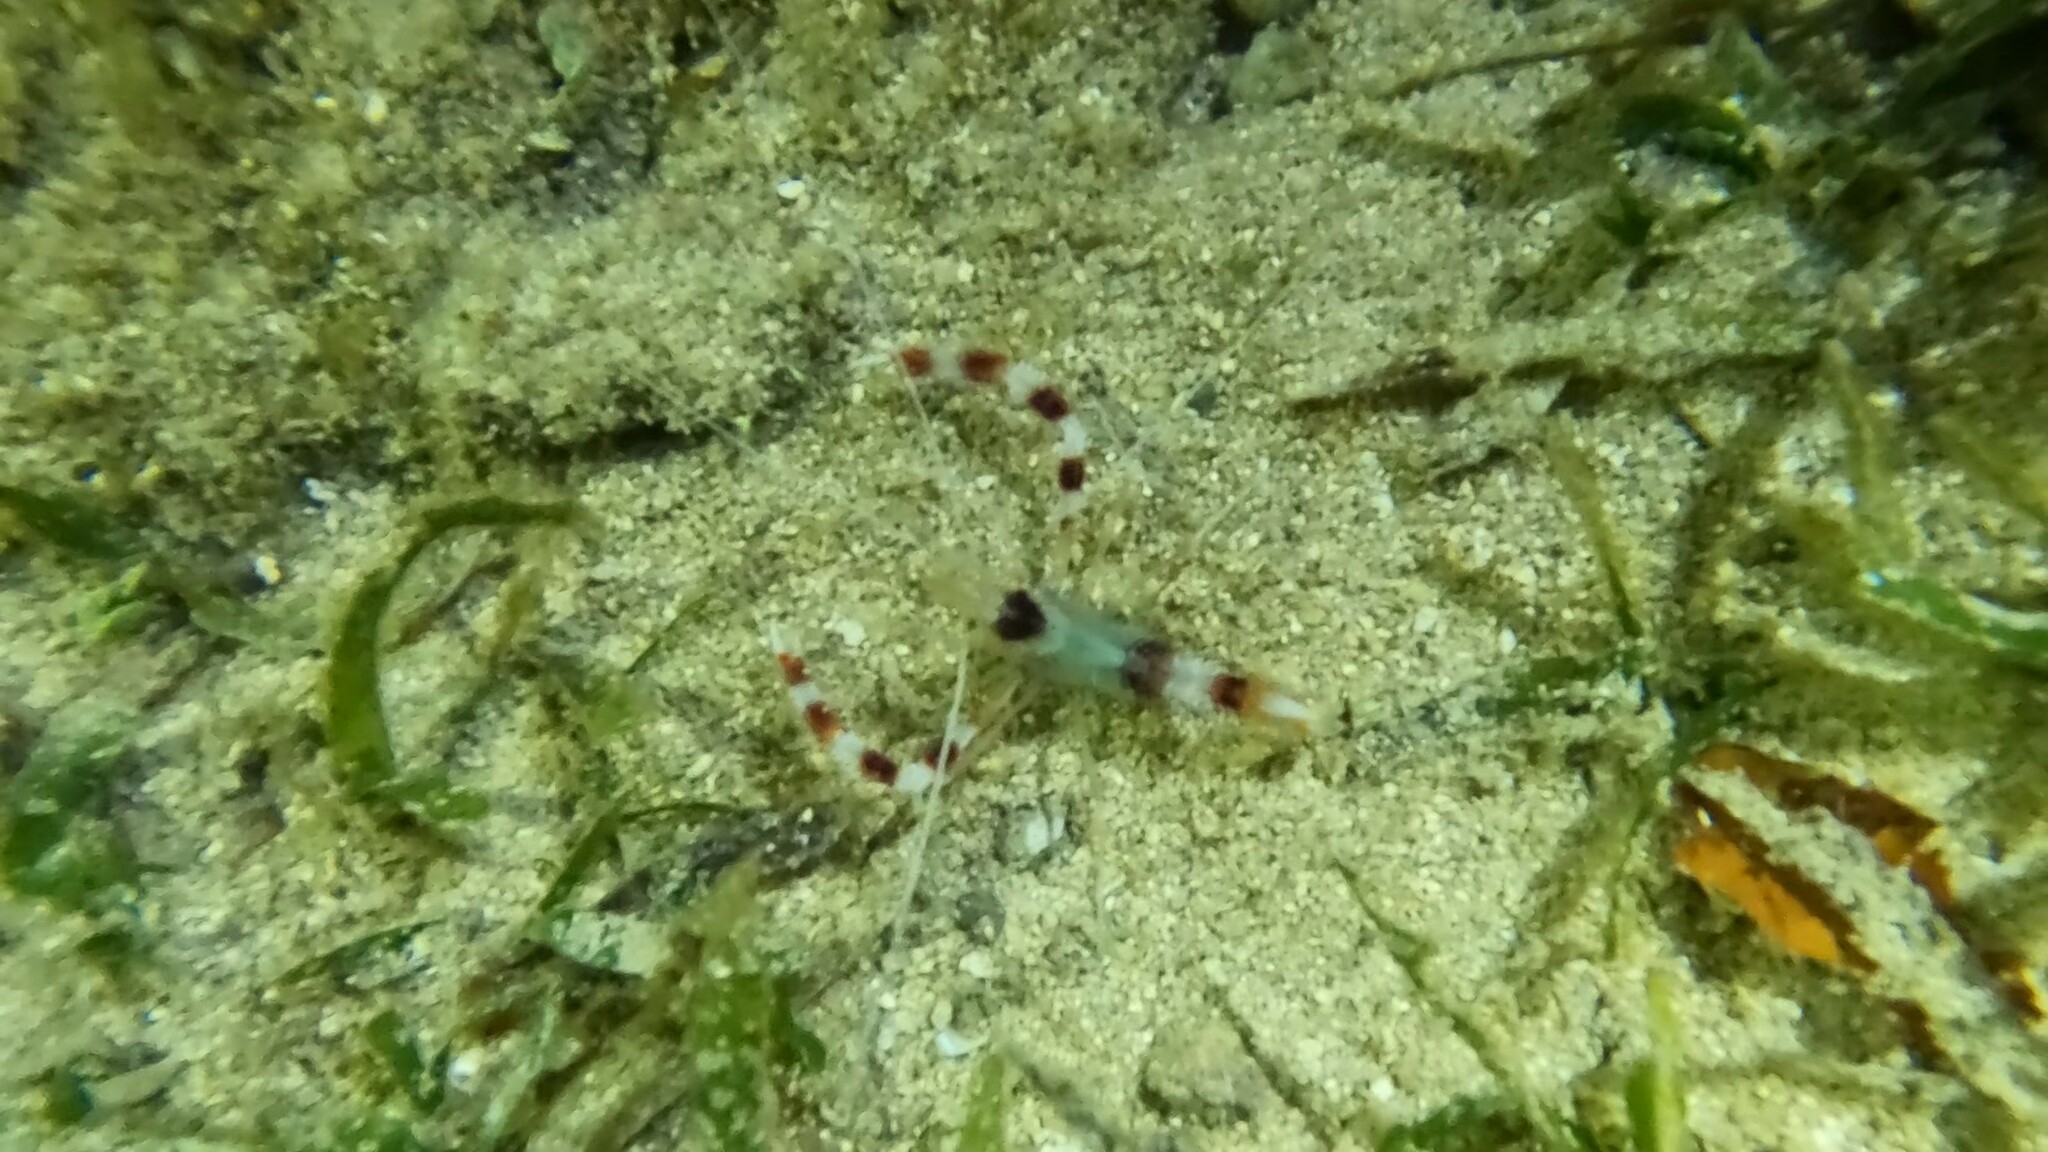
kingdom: Animalia
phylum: Arthropoda
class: Malacostraca
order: Decapoda
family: Stenopodidae
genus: Stenopus
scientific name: Stenopus hispidus
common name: Banded coral shrimp
